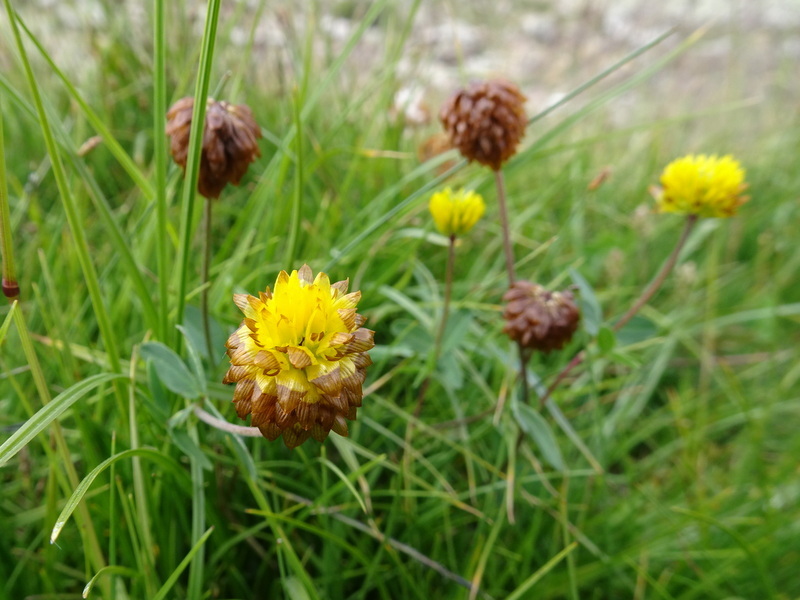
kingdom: Plantae
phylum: Tracheophyta
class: Magnoliopsida
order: Fabales
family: Fabaceae
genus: Trifolium
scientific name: Trifolium badium
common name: Brown clover
